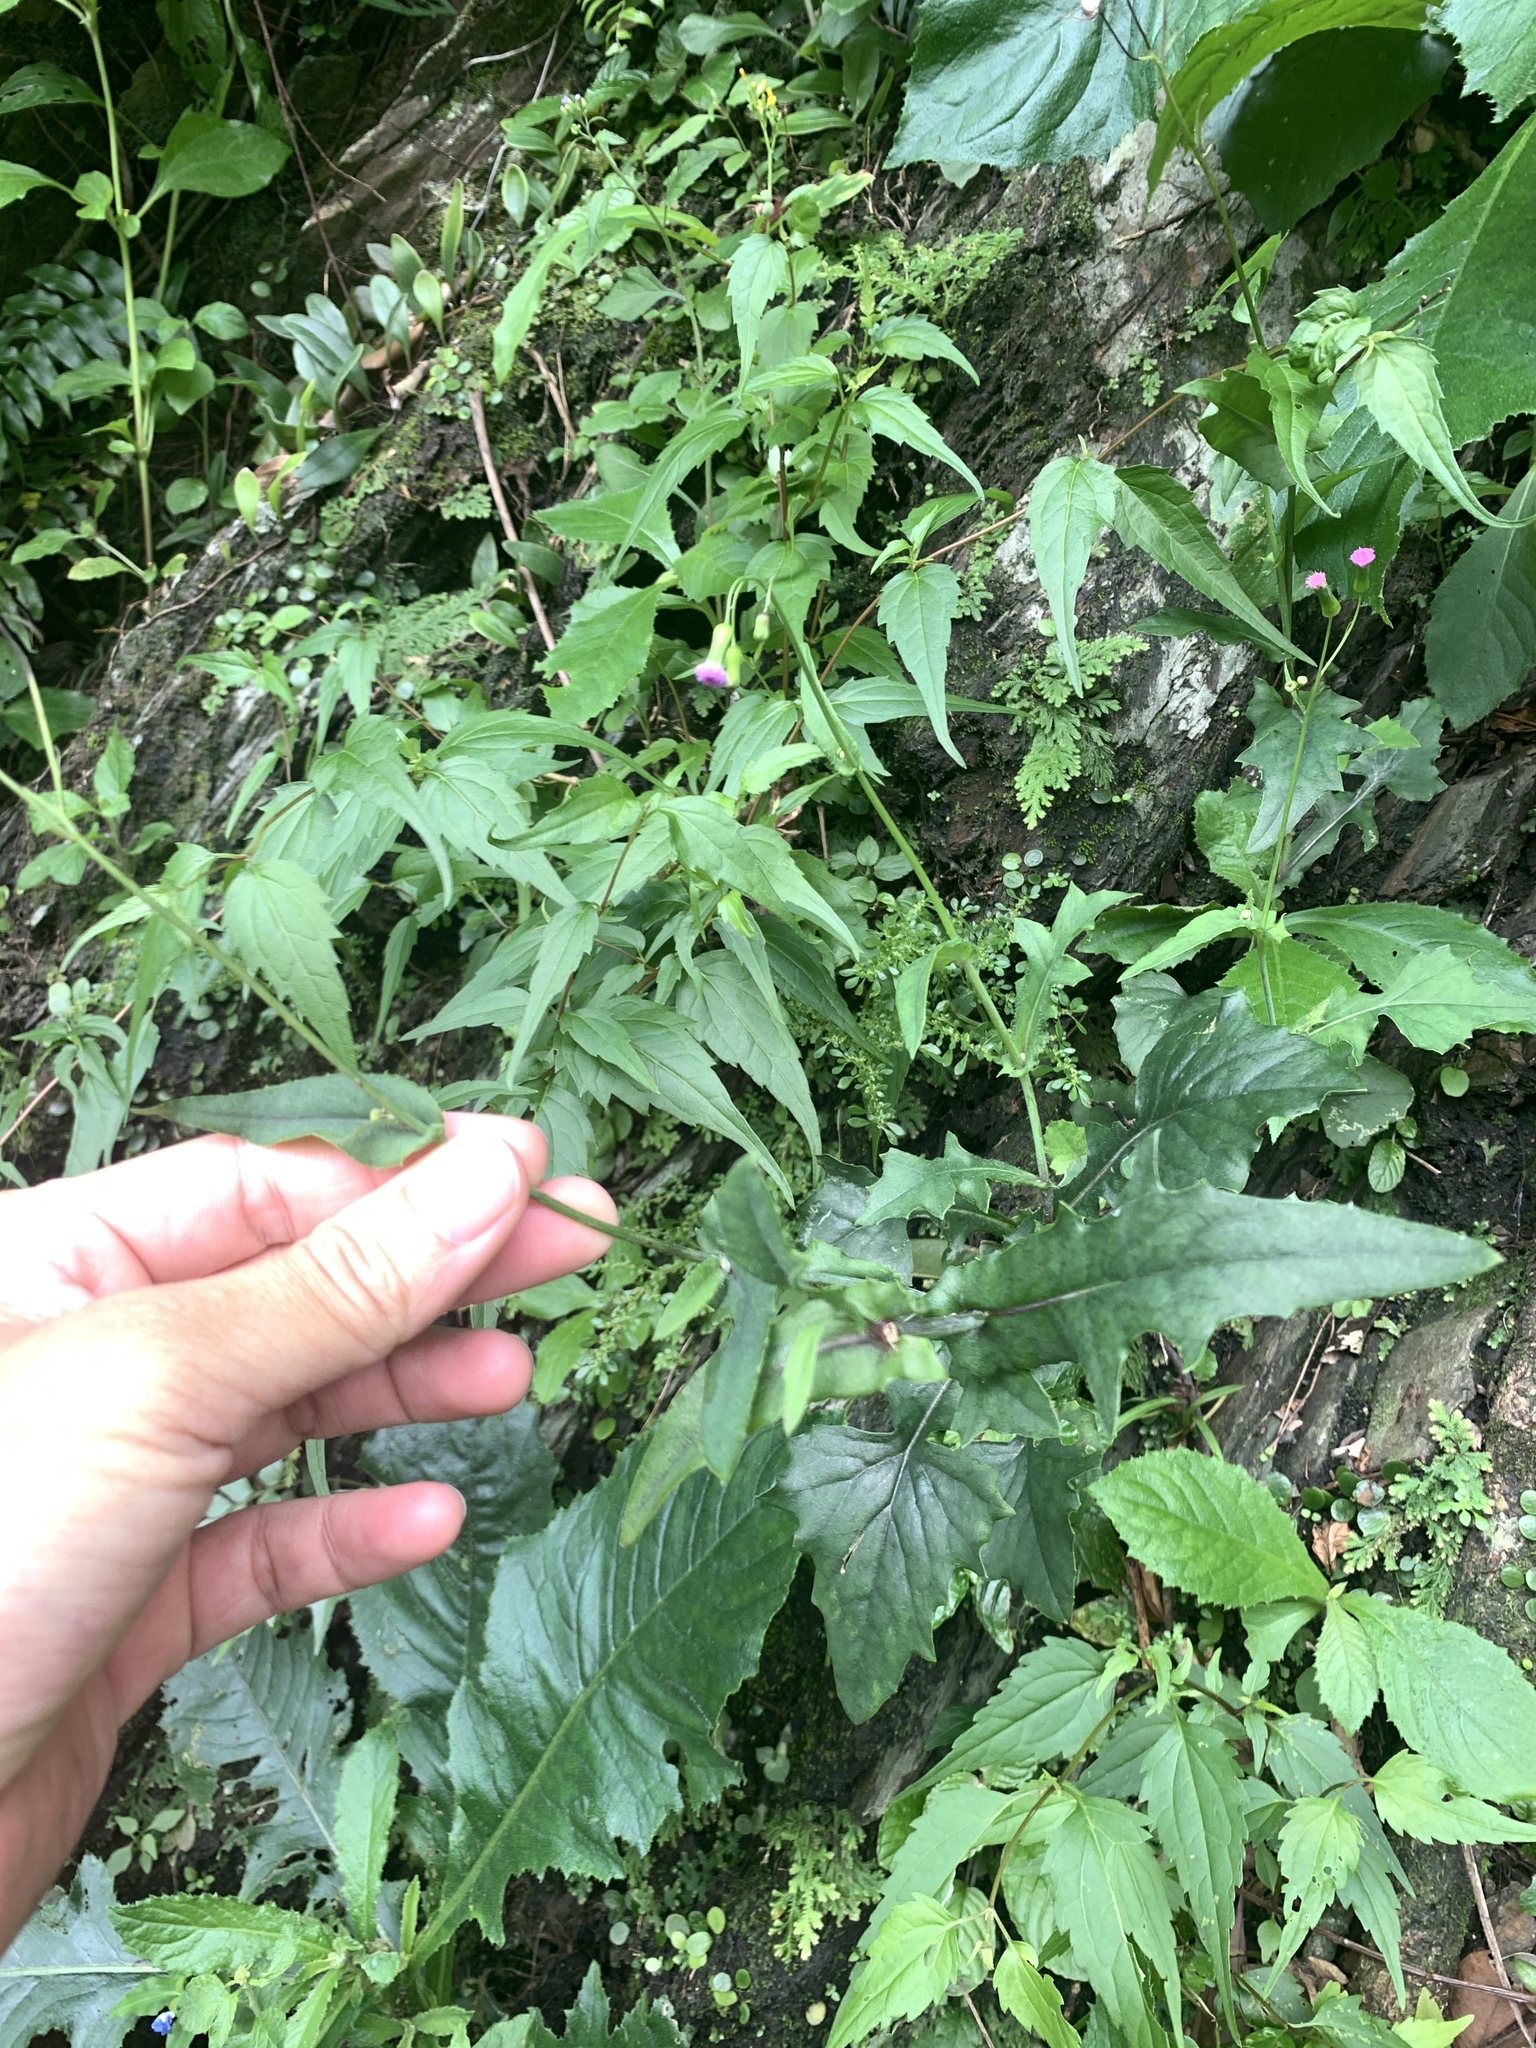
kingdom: Plantae
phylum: Tracheophyta
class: Magnoliopsida
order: Asterales
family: Asteraceae
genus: Emilia
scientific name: Emilia javanica
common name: Tassel-flower
